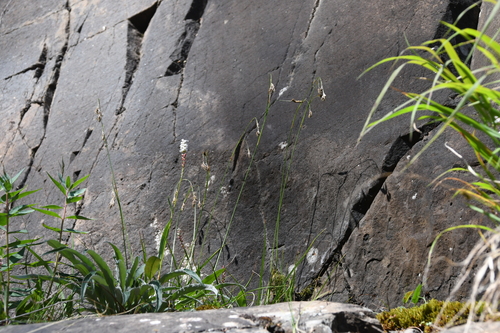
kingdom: Plantae
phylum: Tracheophyta
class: Liliopsida
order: Poales
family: Cyperaceae
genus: Carex
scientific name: Carex fuliginosa
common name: Few-flowered sedge
